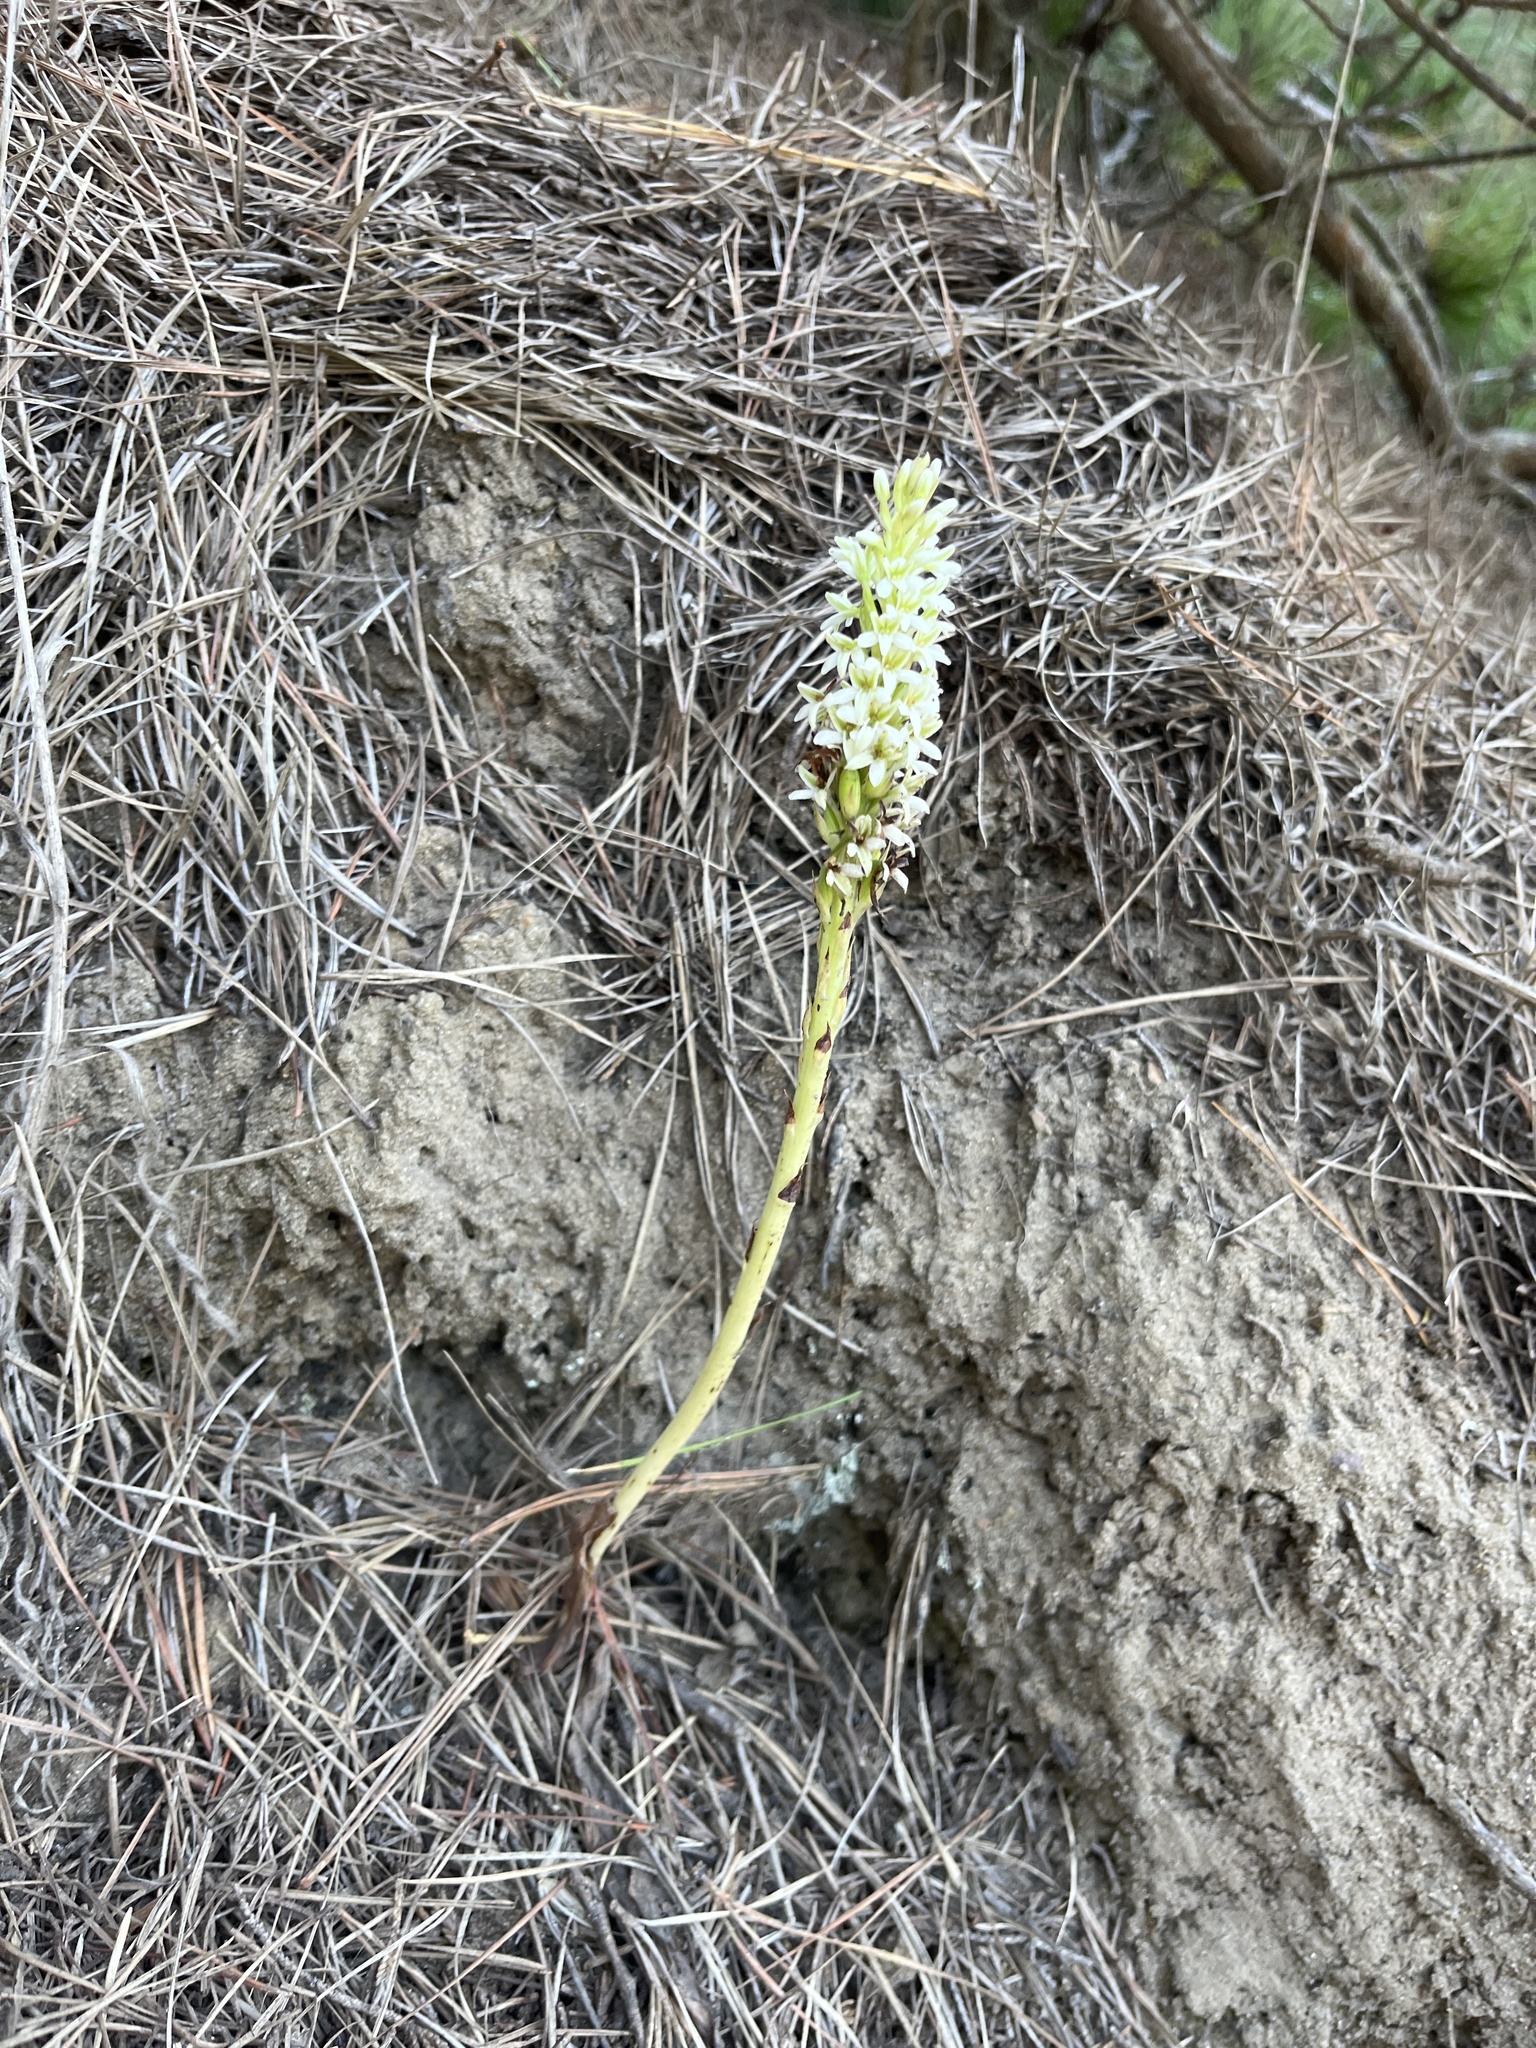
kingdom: Plantae
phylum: Tracheophyta
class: Liliopsida
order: Asparagales
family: Orchidaceae
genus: Platanthera
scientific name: Platanthera elegans
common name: Coast piperia
